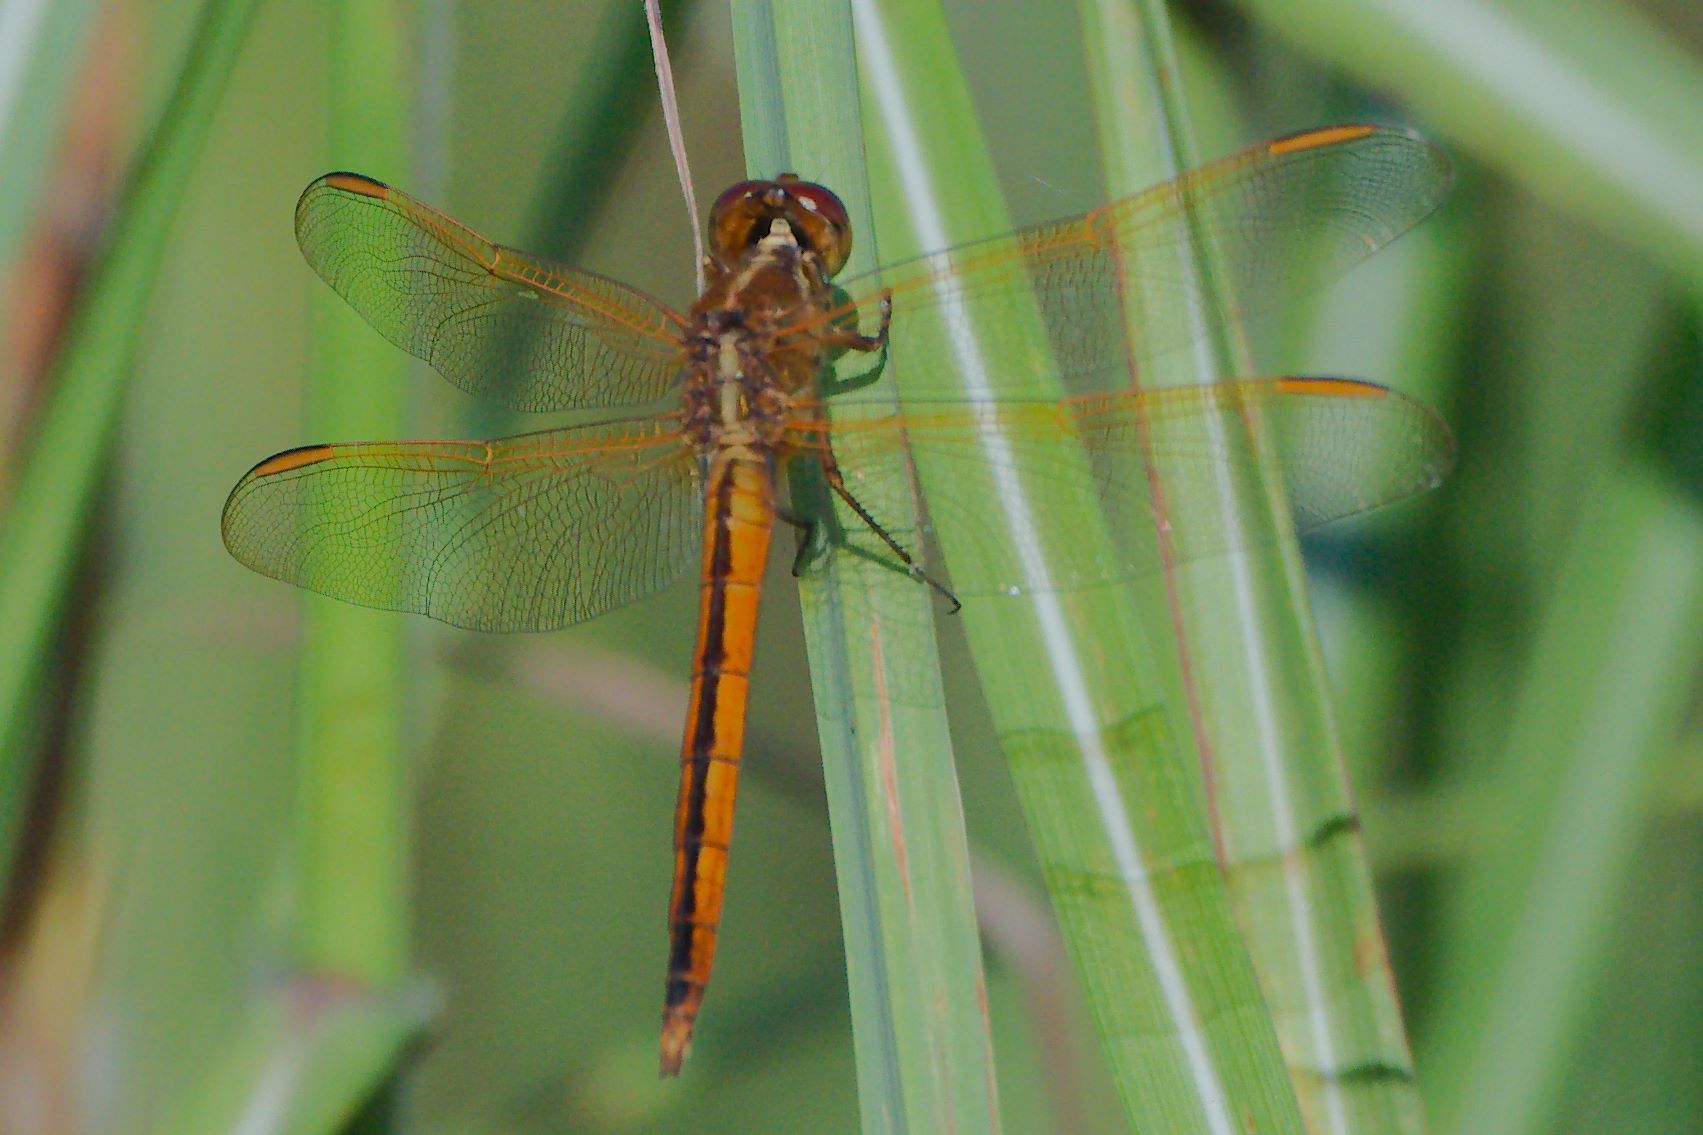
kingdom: Animalia
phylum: Arthropoda
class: Insecta
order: Odonata
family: Libellulidae
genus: Libellula
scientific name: Libellula needhami
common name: Needham's skimmer
